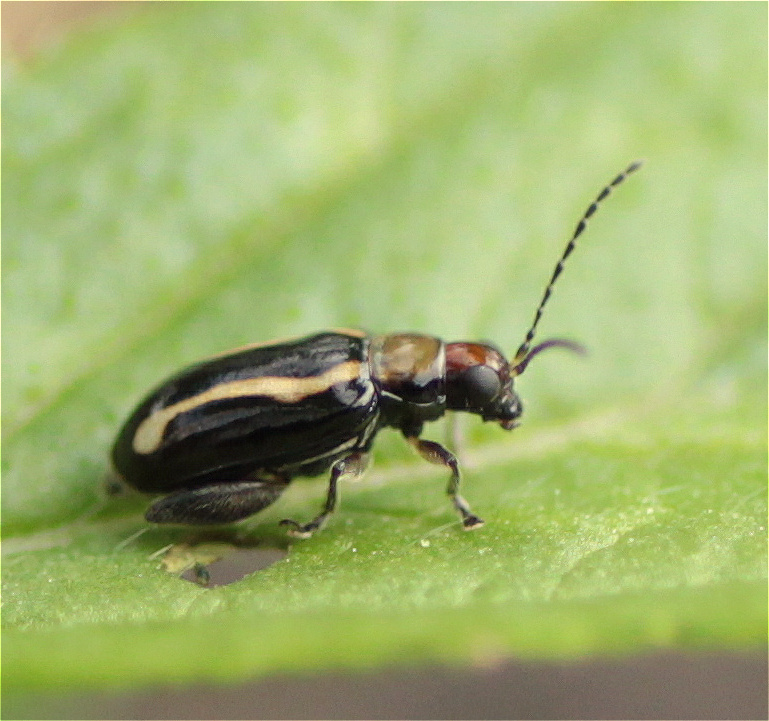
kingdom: Animalia
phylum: Arthropoda
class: Insecta
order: Coleoptera
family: Chrysomelidae
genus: Systena
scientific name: Systena s-littera
